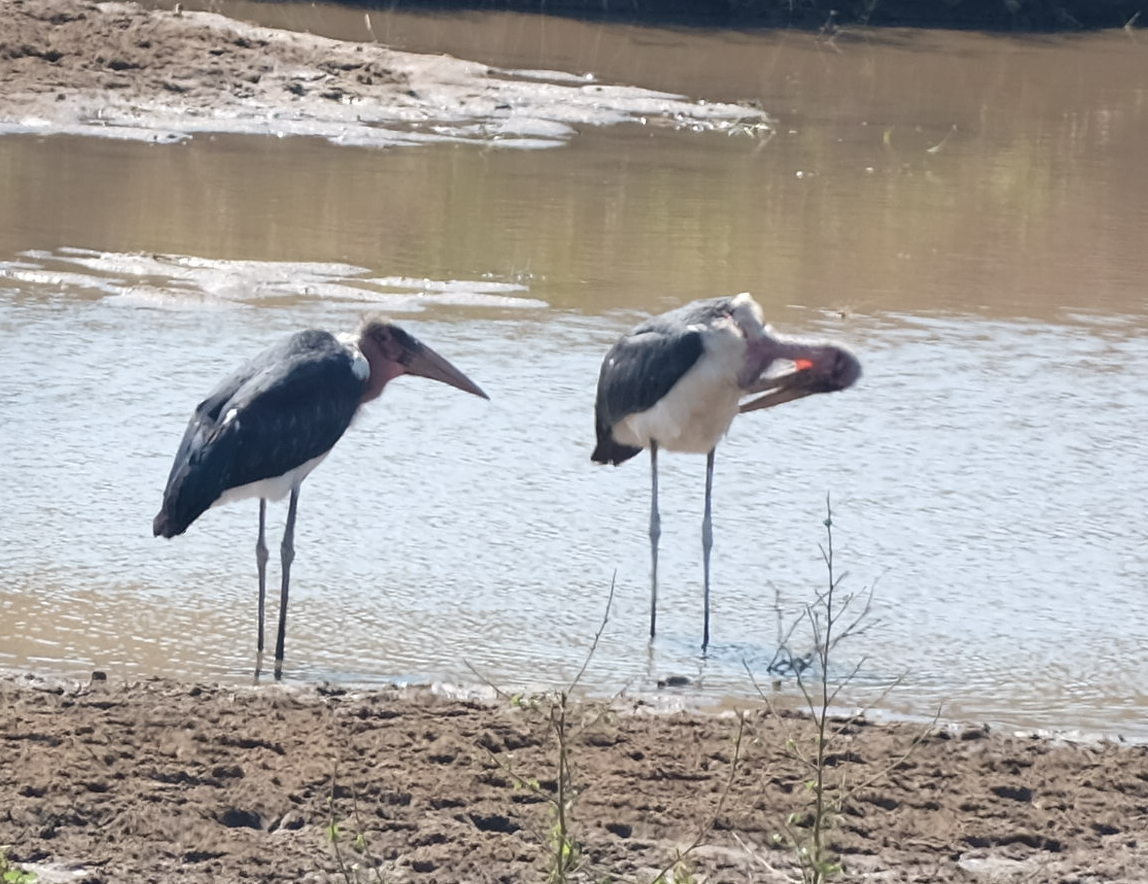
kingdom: Animalia
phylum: Chordata
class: Aves
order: Ciconiiformes
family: Ciconiidae
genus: Leptoptilos
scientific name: Leptoptilos crumenifer
